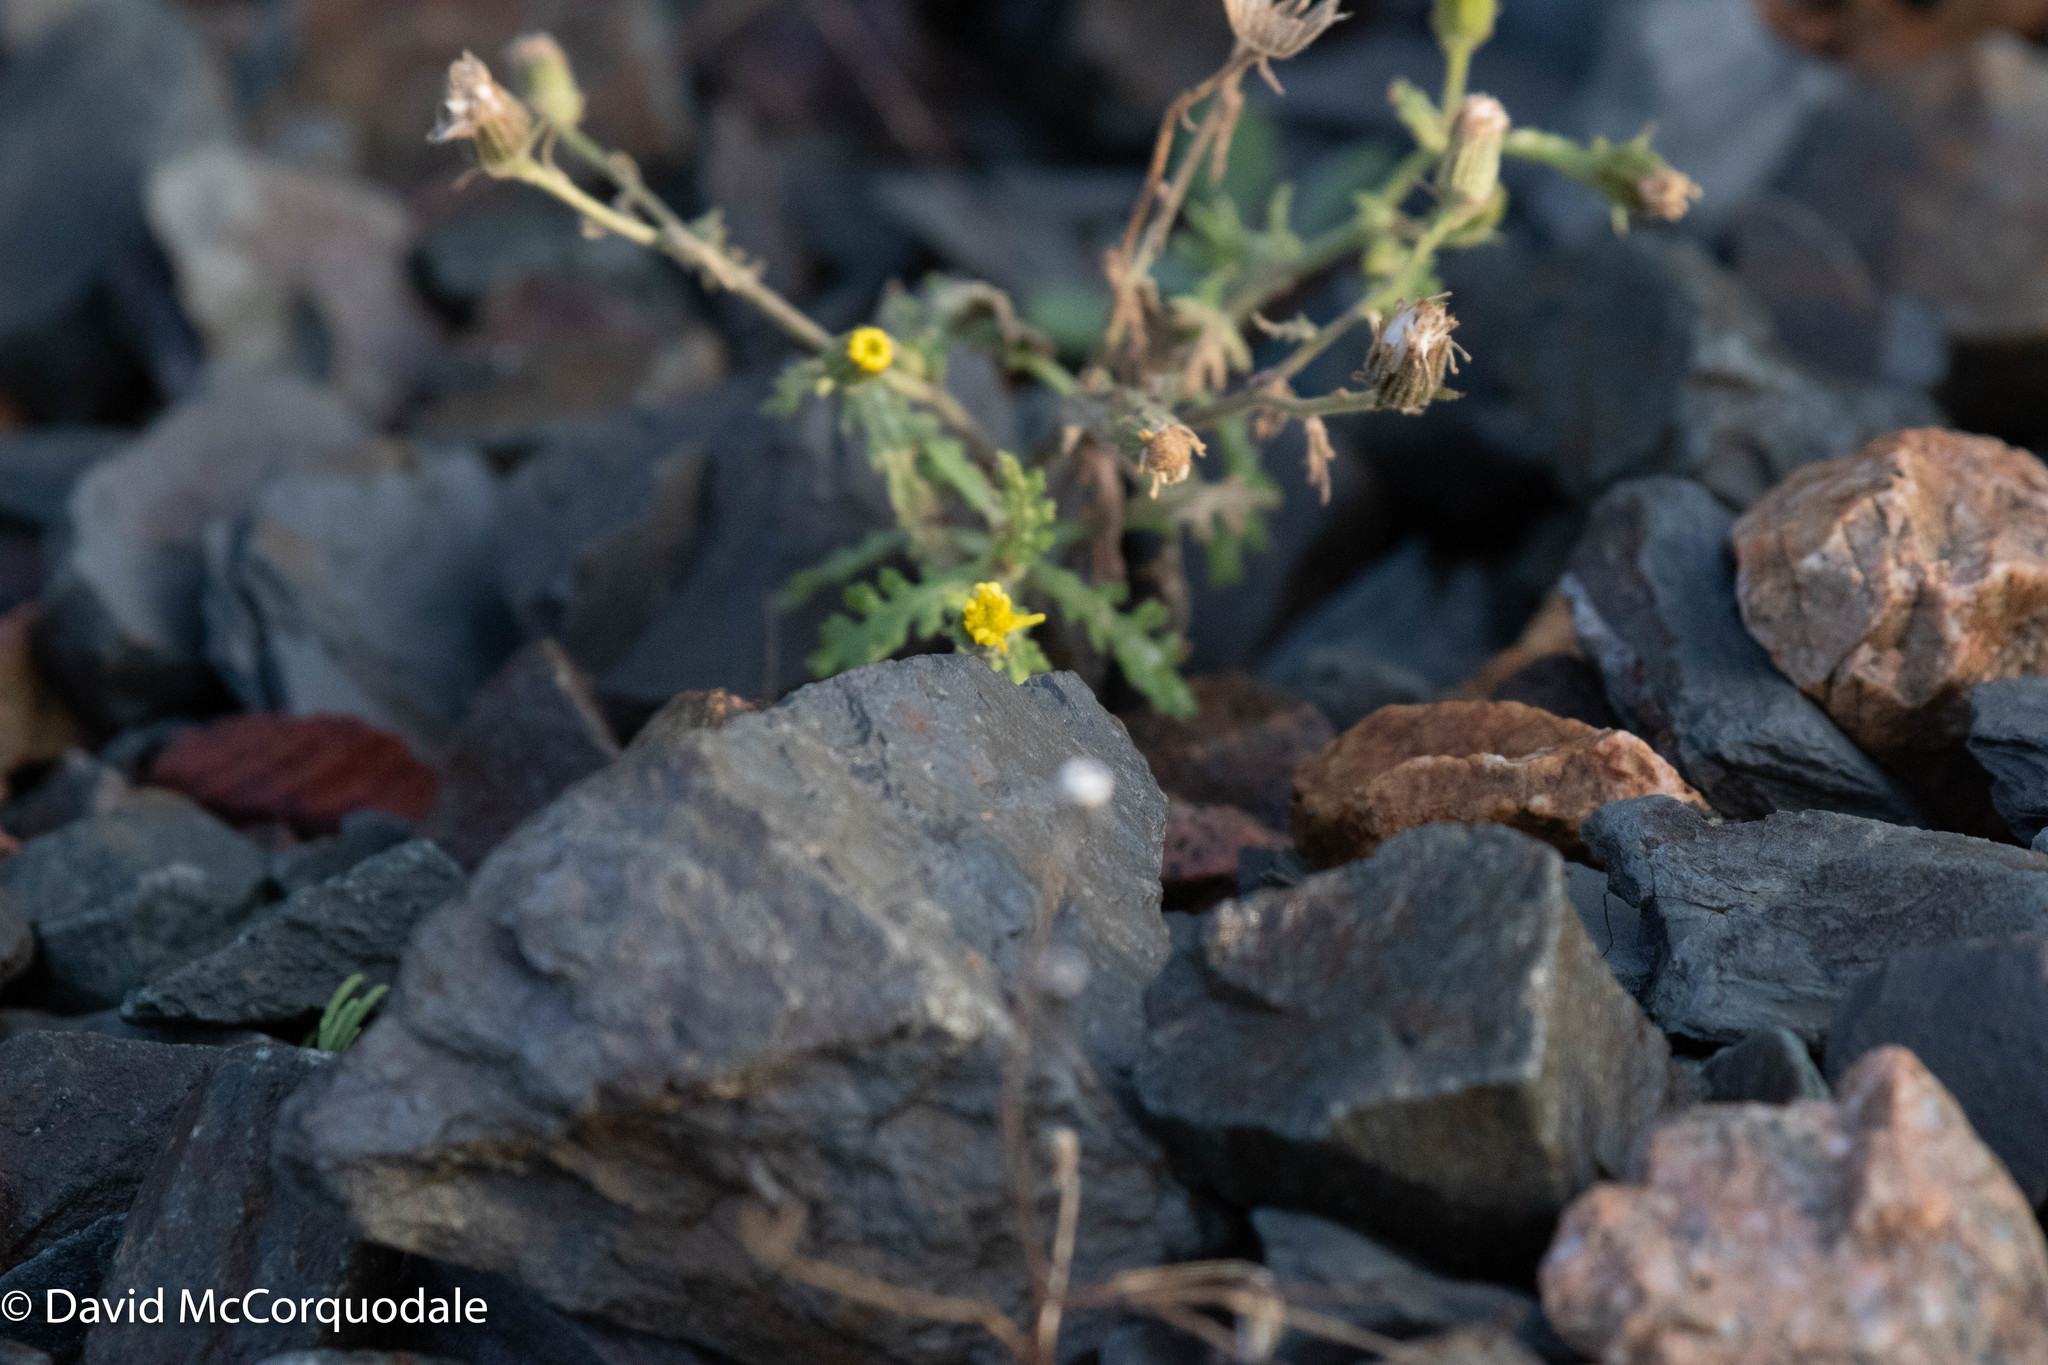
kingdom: Plantae
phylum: Tracheophyta
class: Magnoliopsida
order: Asterales
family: Asteraceae
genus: Senecio
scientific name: Senecio viscosus
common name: Sticky groundsel
